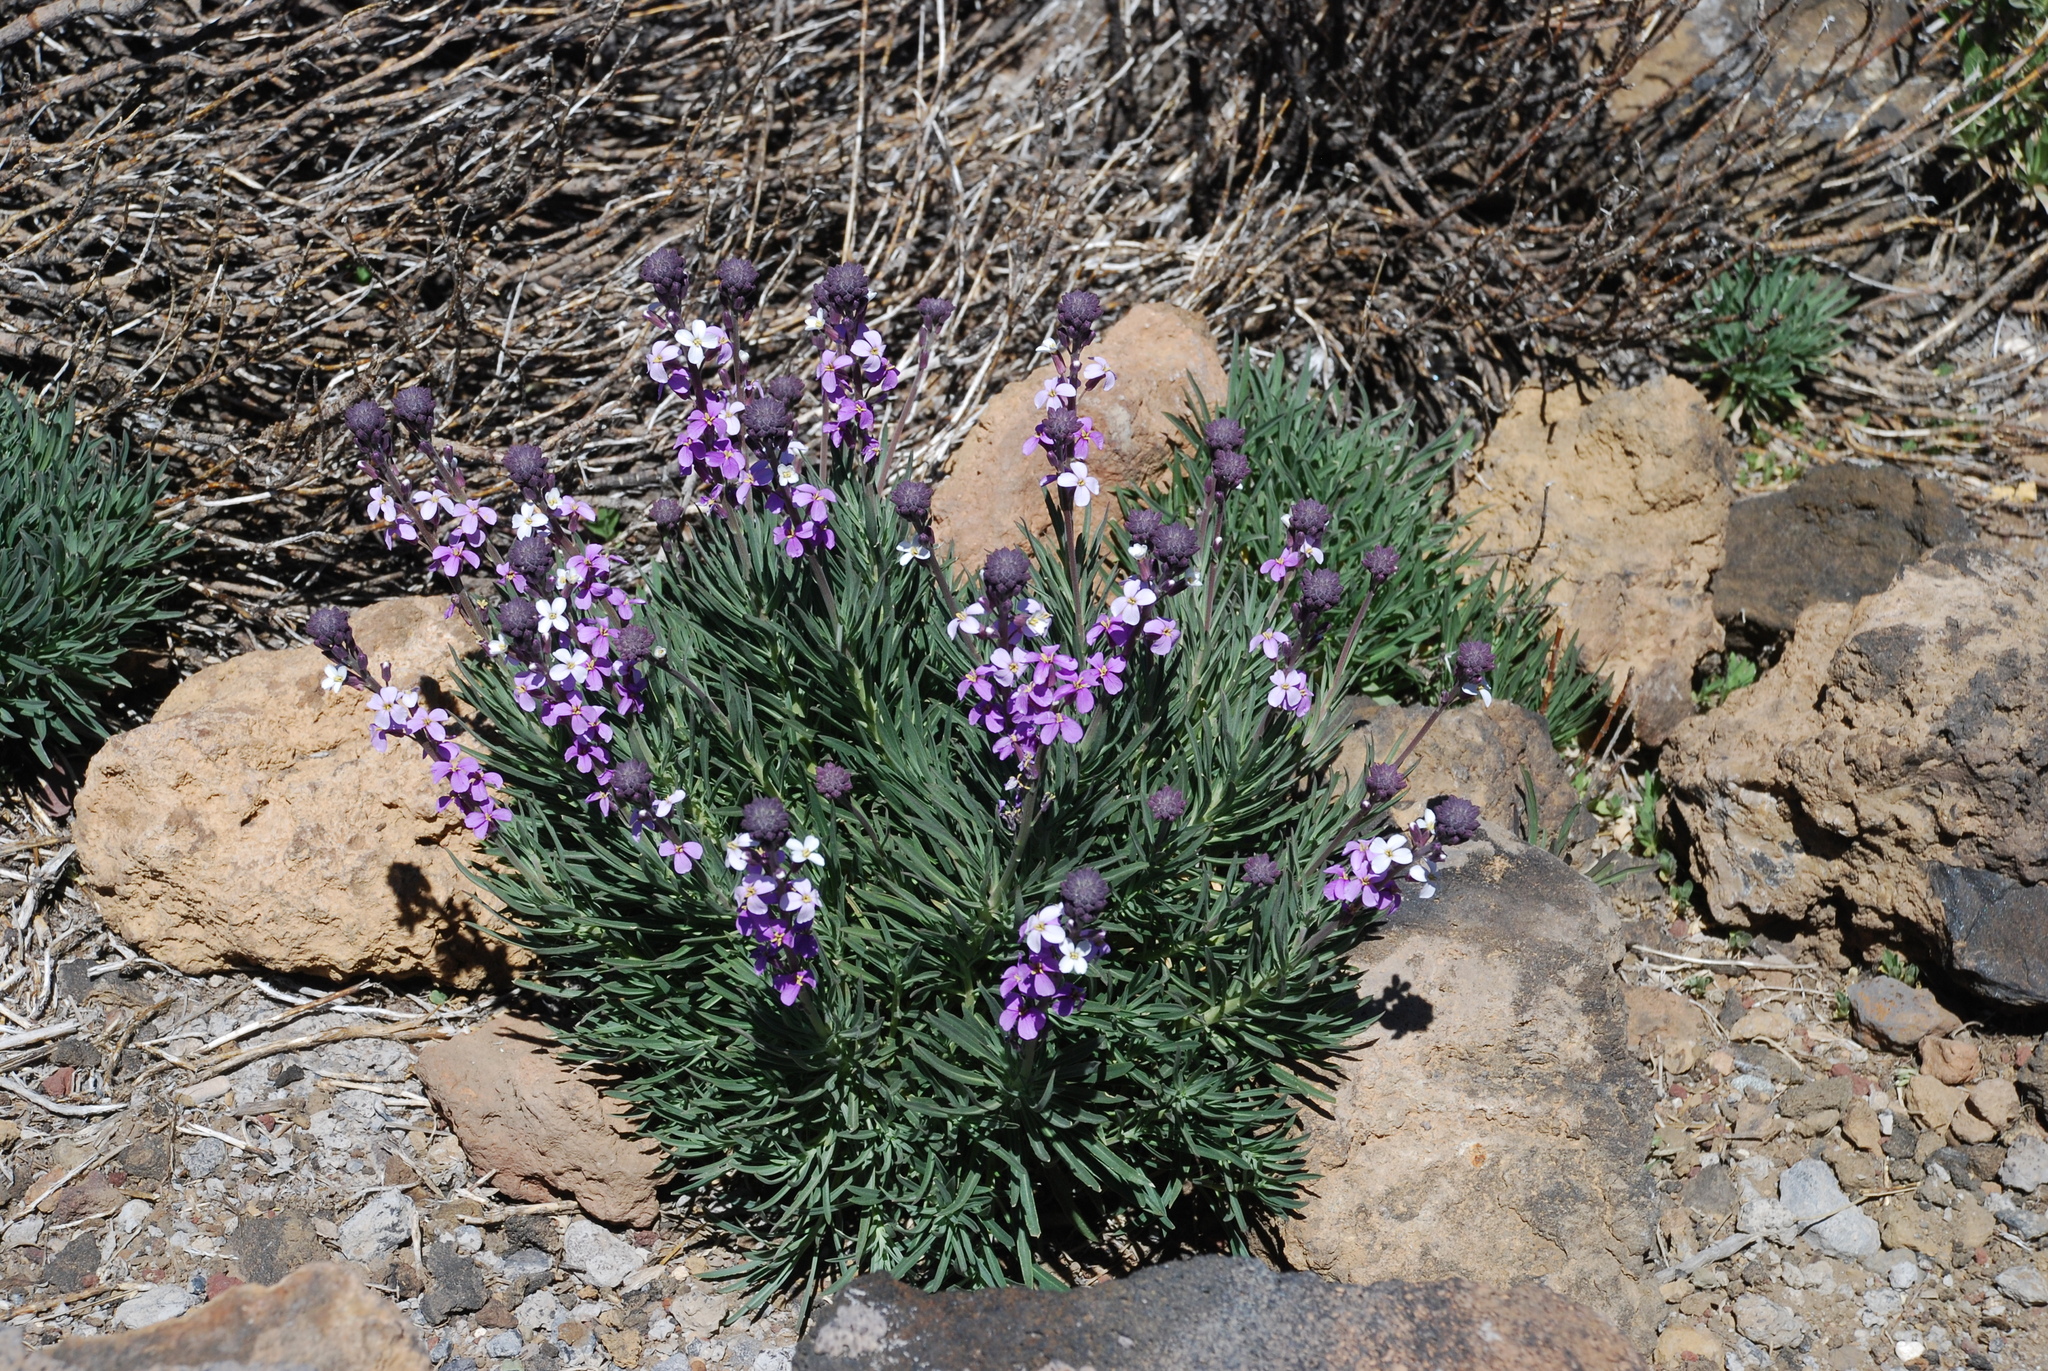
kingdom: Plantae
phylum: Tracheophyta
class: Magnoliopsida
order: Brassicales
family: Brassicaceae
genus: Erysimum
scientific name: Erysimum scoparium
